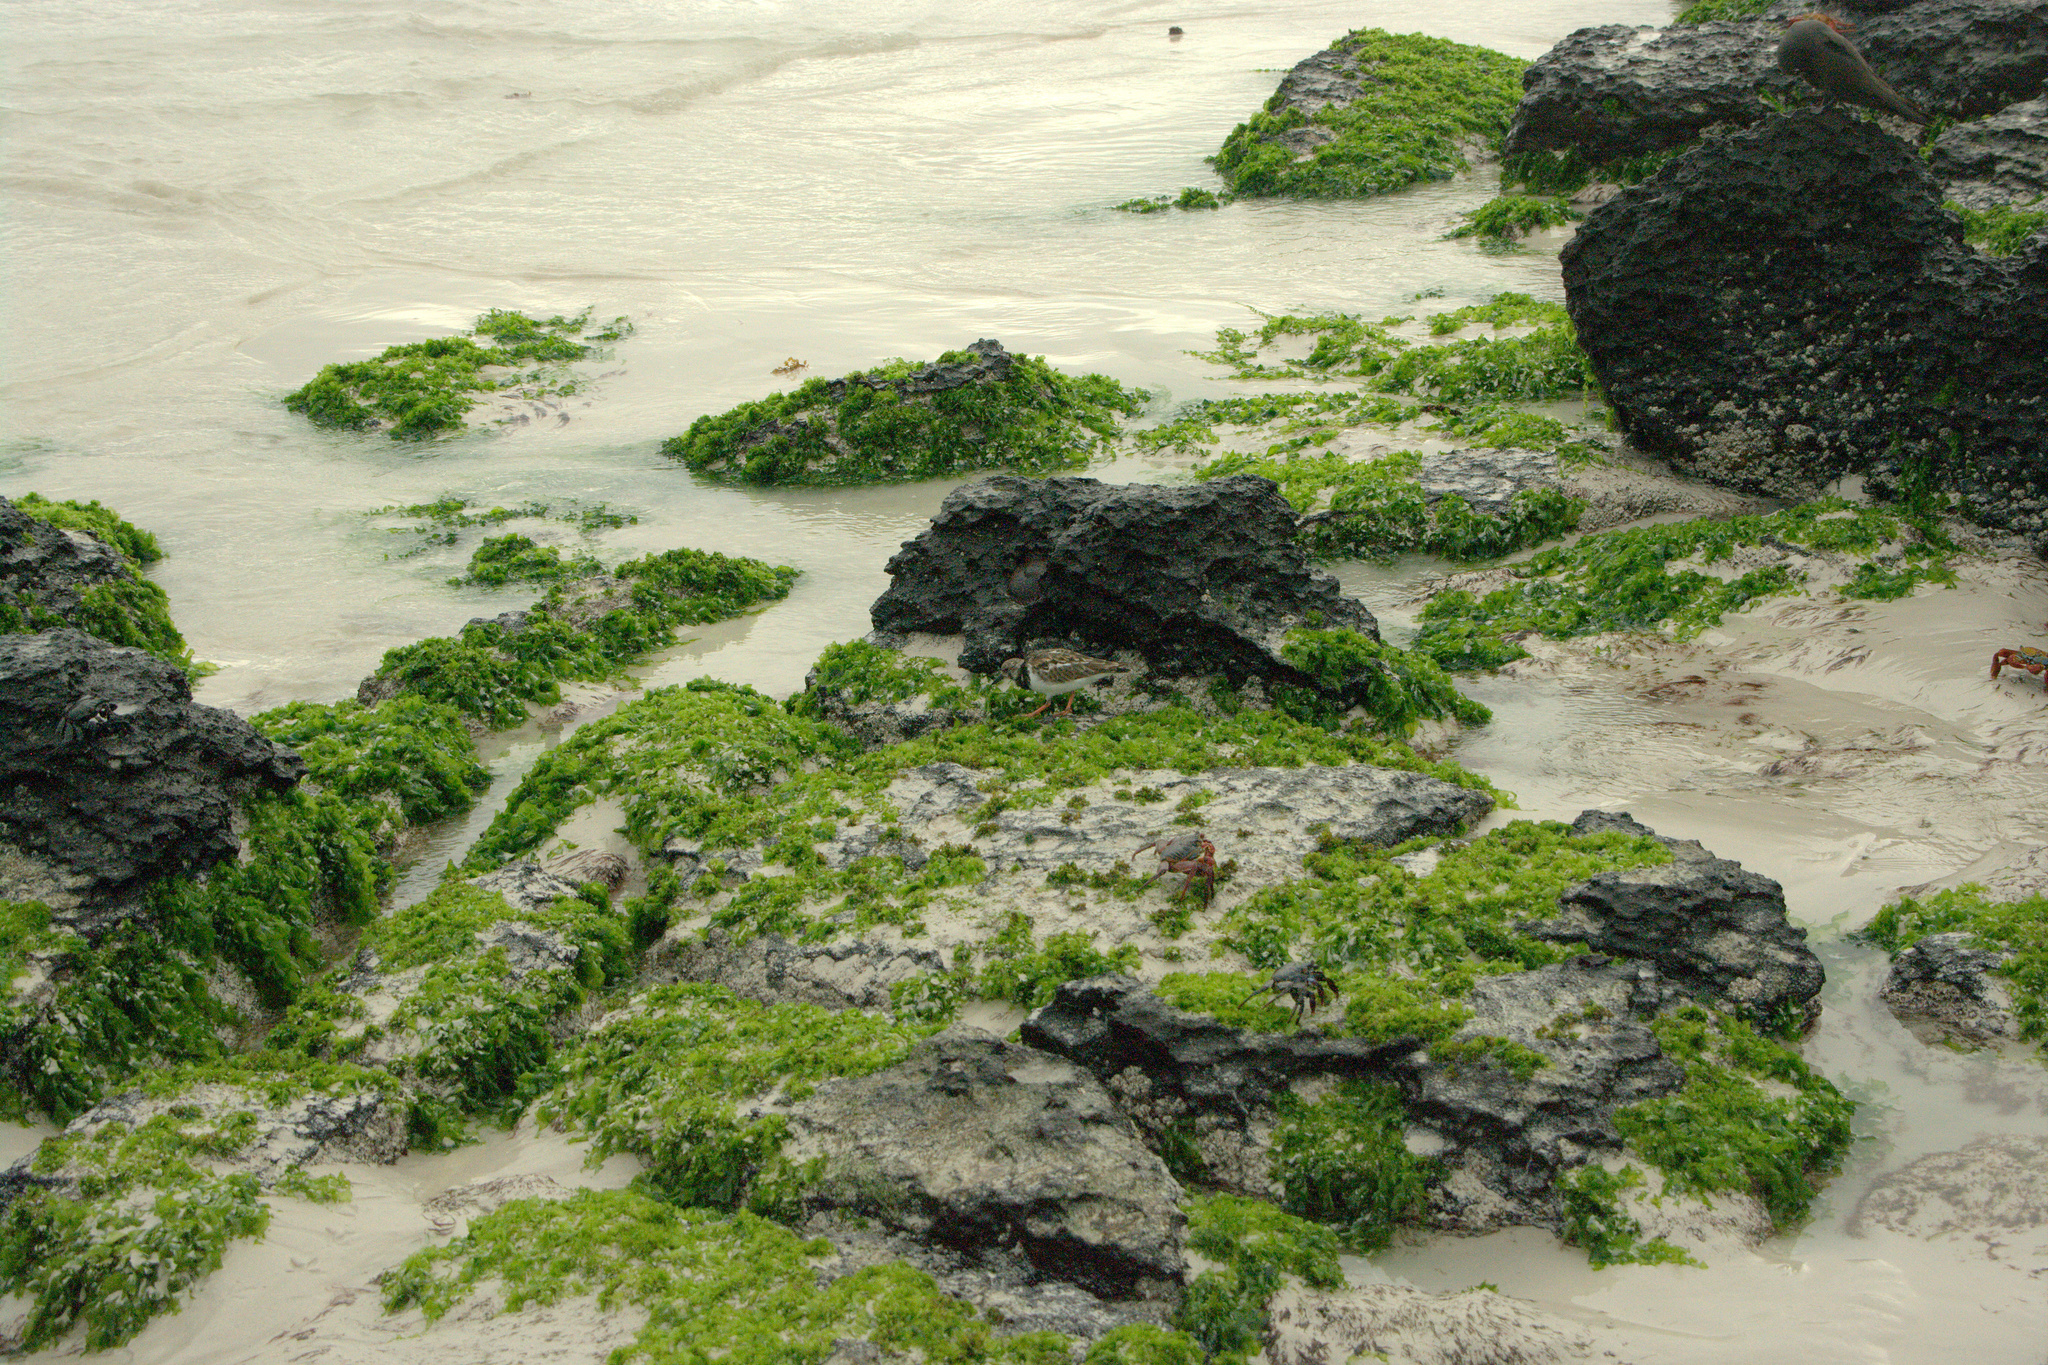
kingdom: Animalia
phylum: Chordata
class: Aves
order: Charadriiformes
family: Scolopacidae
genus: Arenaria
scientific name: Arenaria interpres
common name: Ruddy turnstone
